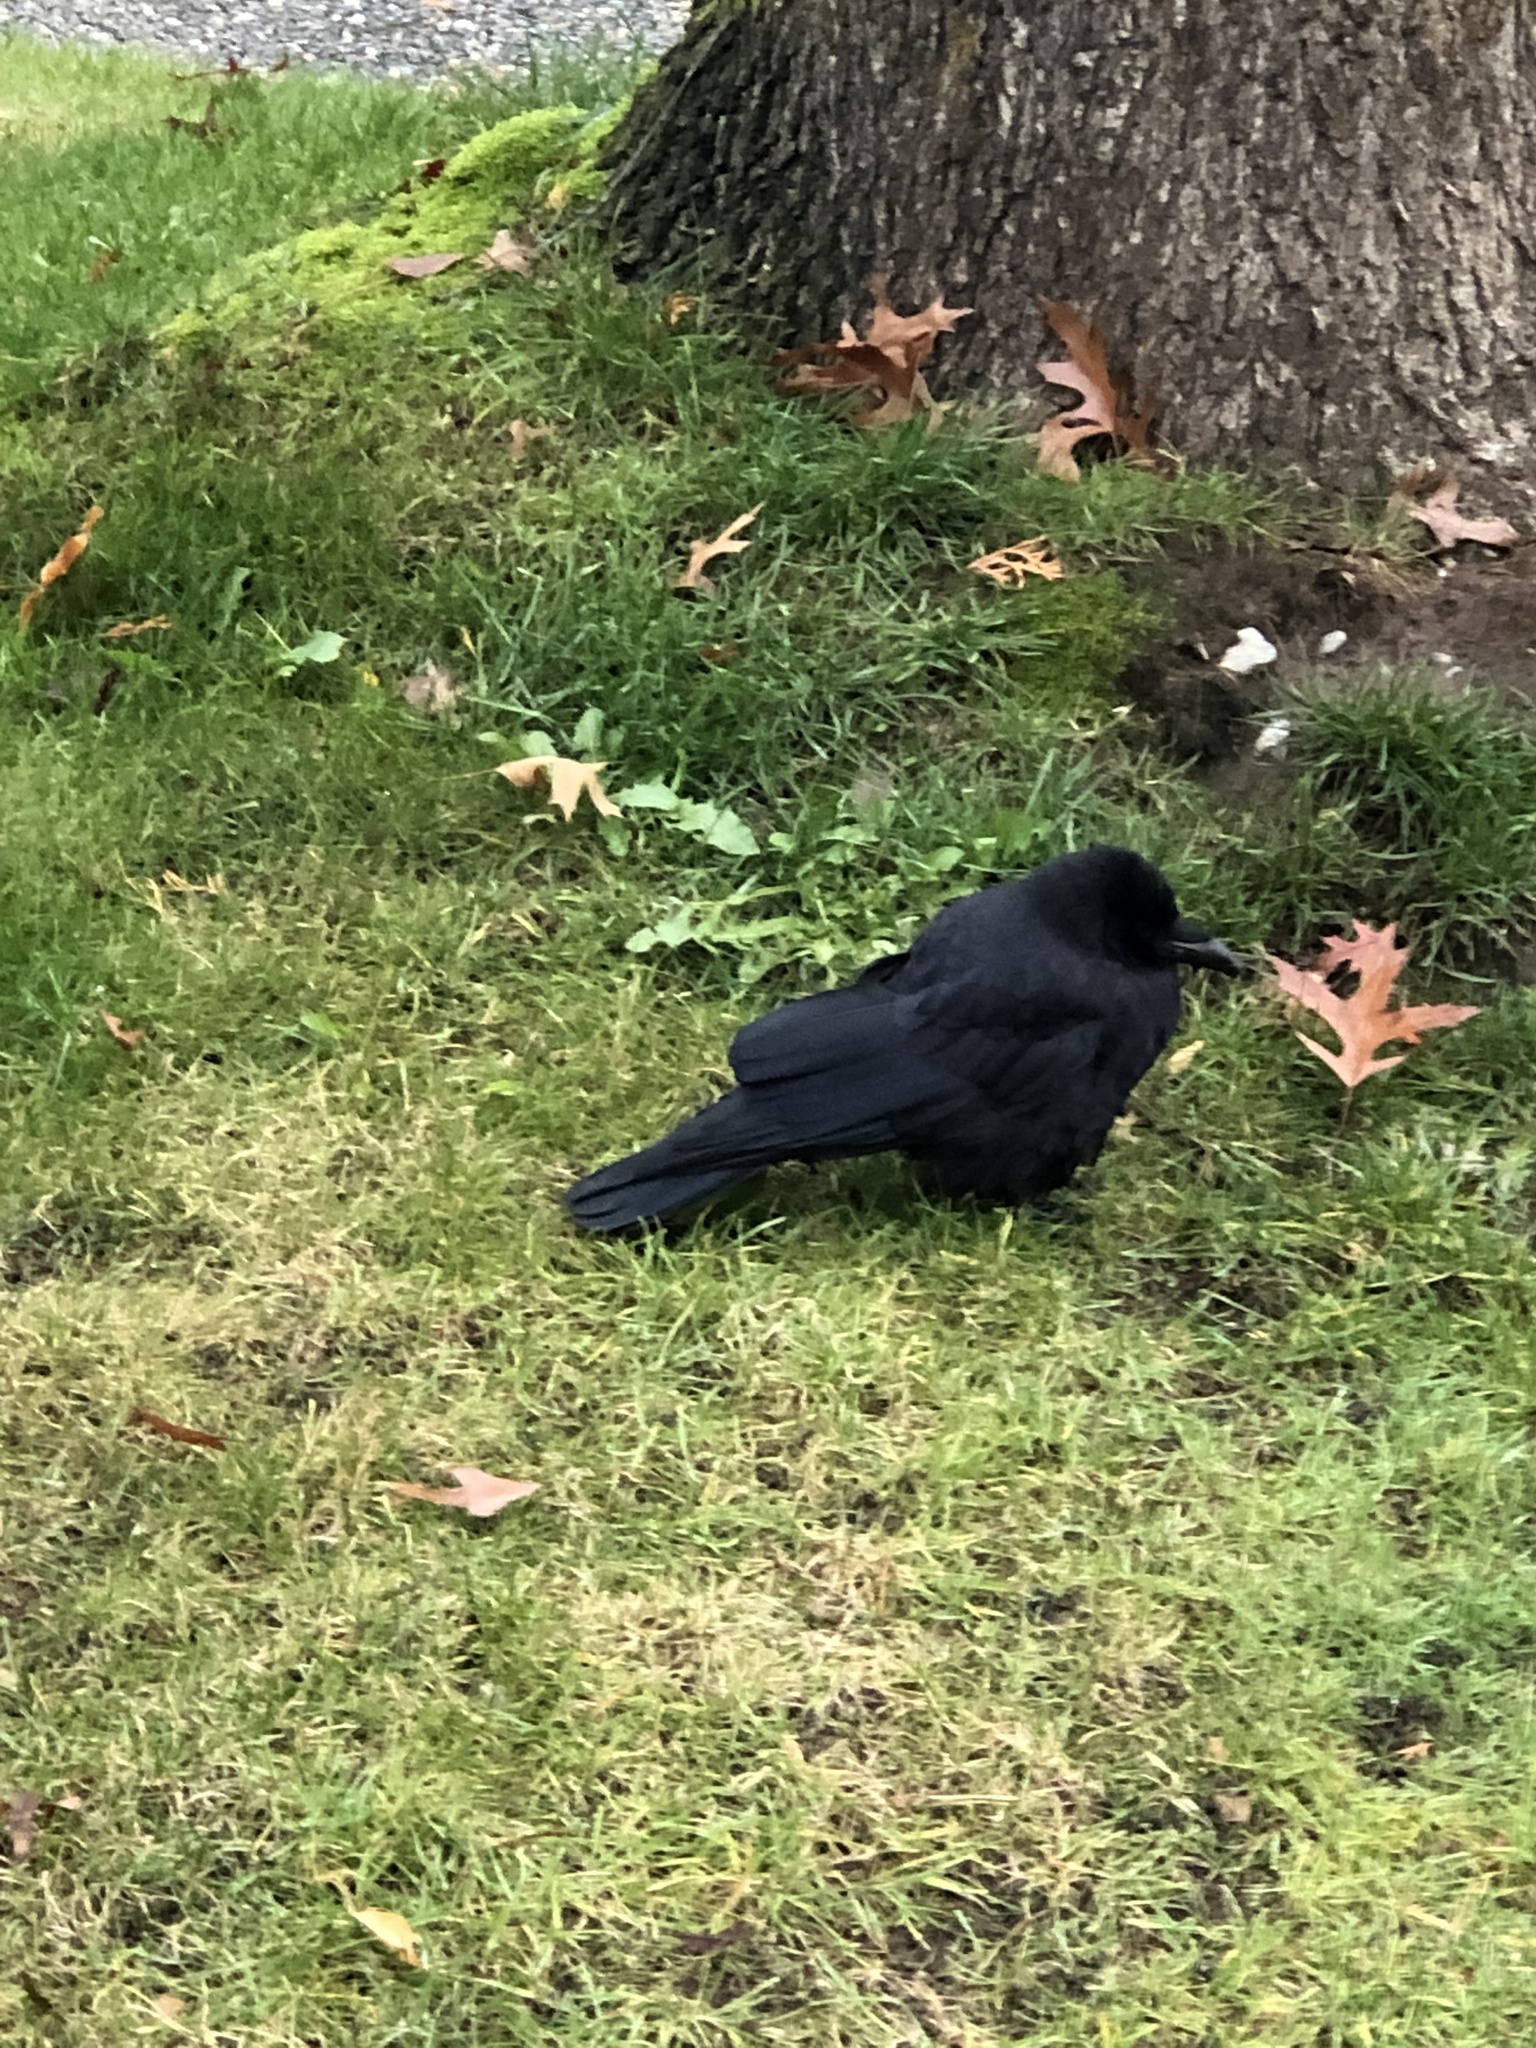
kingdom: Animalia
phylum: Chordata
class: Aves
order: Passeriformes
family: Corvidae
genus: Corvus
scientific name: Corvus brachyrhynchos
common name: American crow
